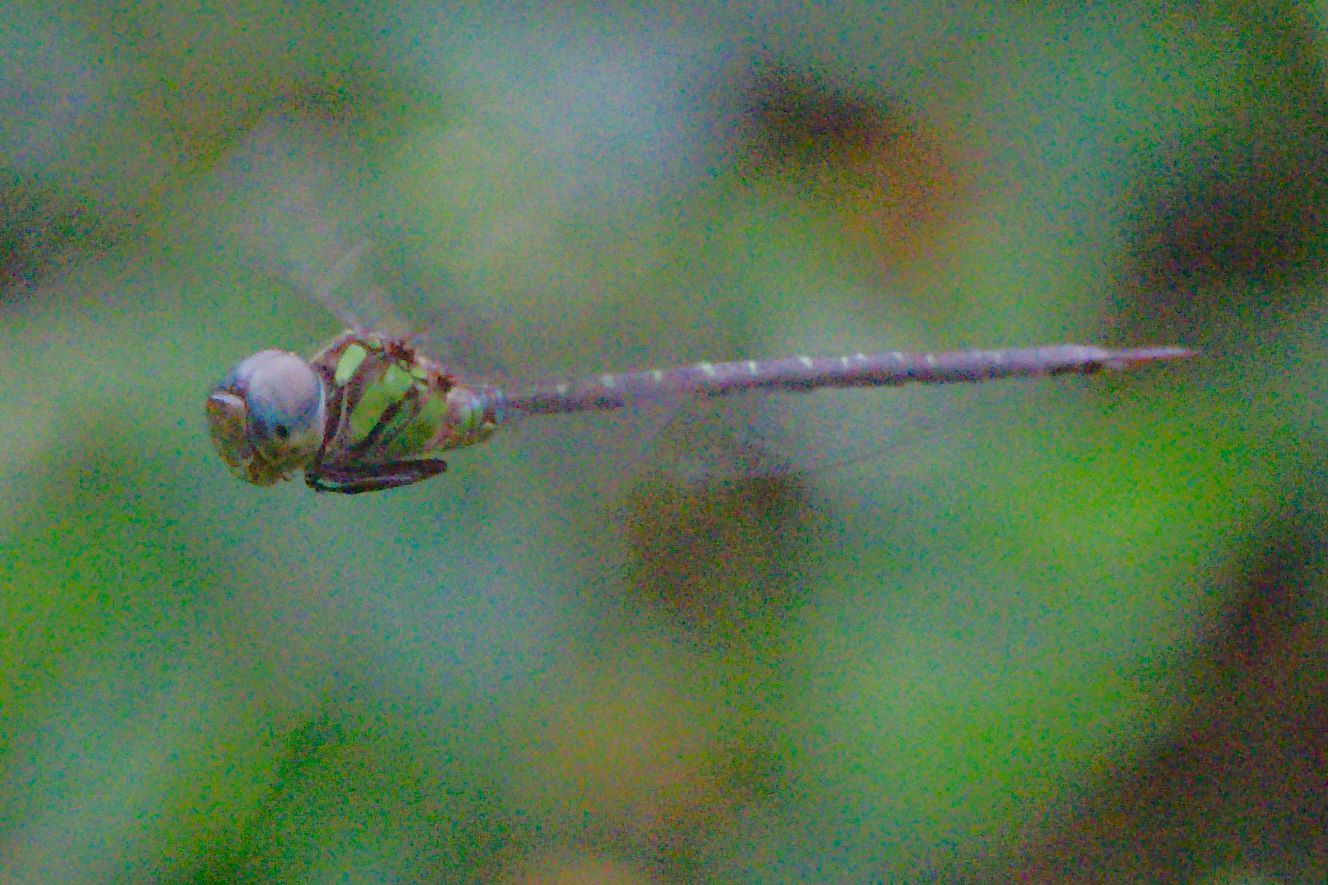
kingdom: Animalia
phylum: Arthropoda
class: Insecta
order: Odonata
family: Aeshnidae
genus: Triacanthagyna
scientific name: Triacanthagyna trifida
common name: Phantom darner
